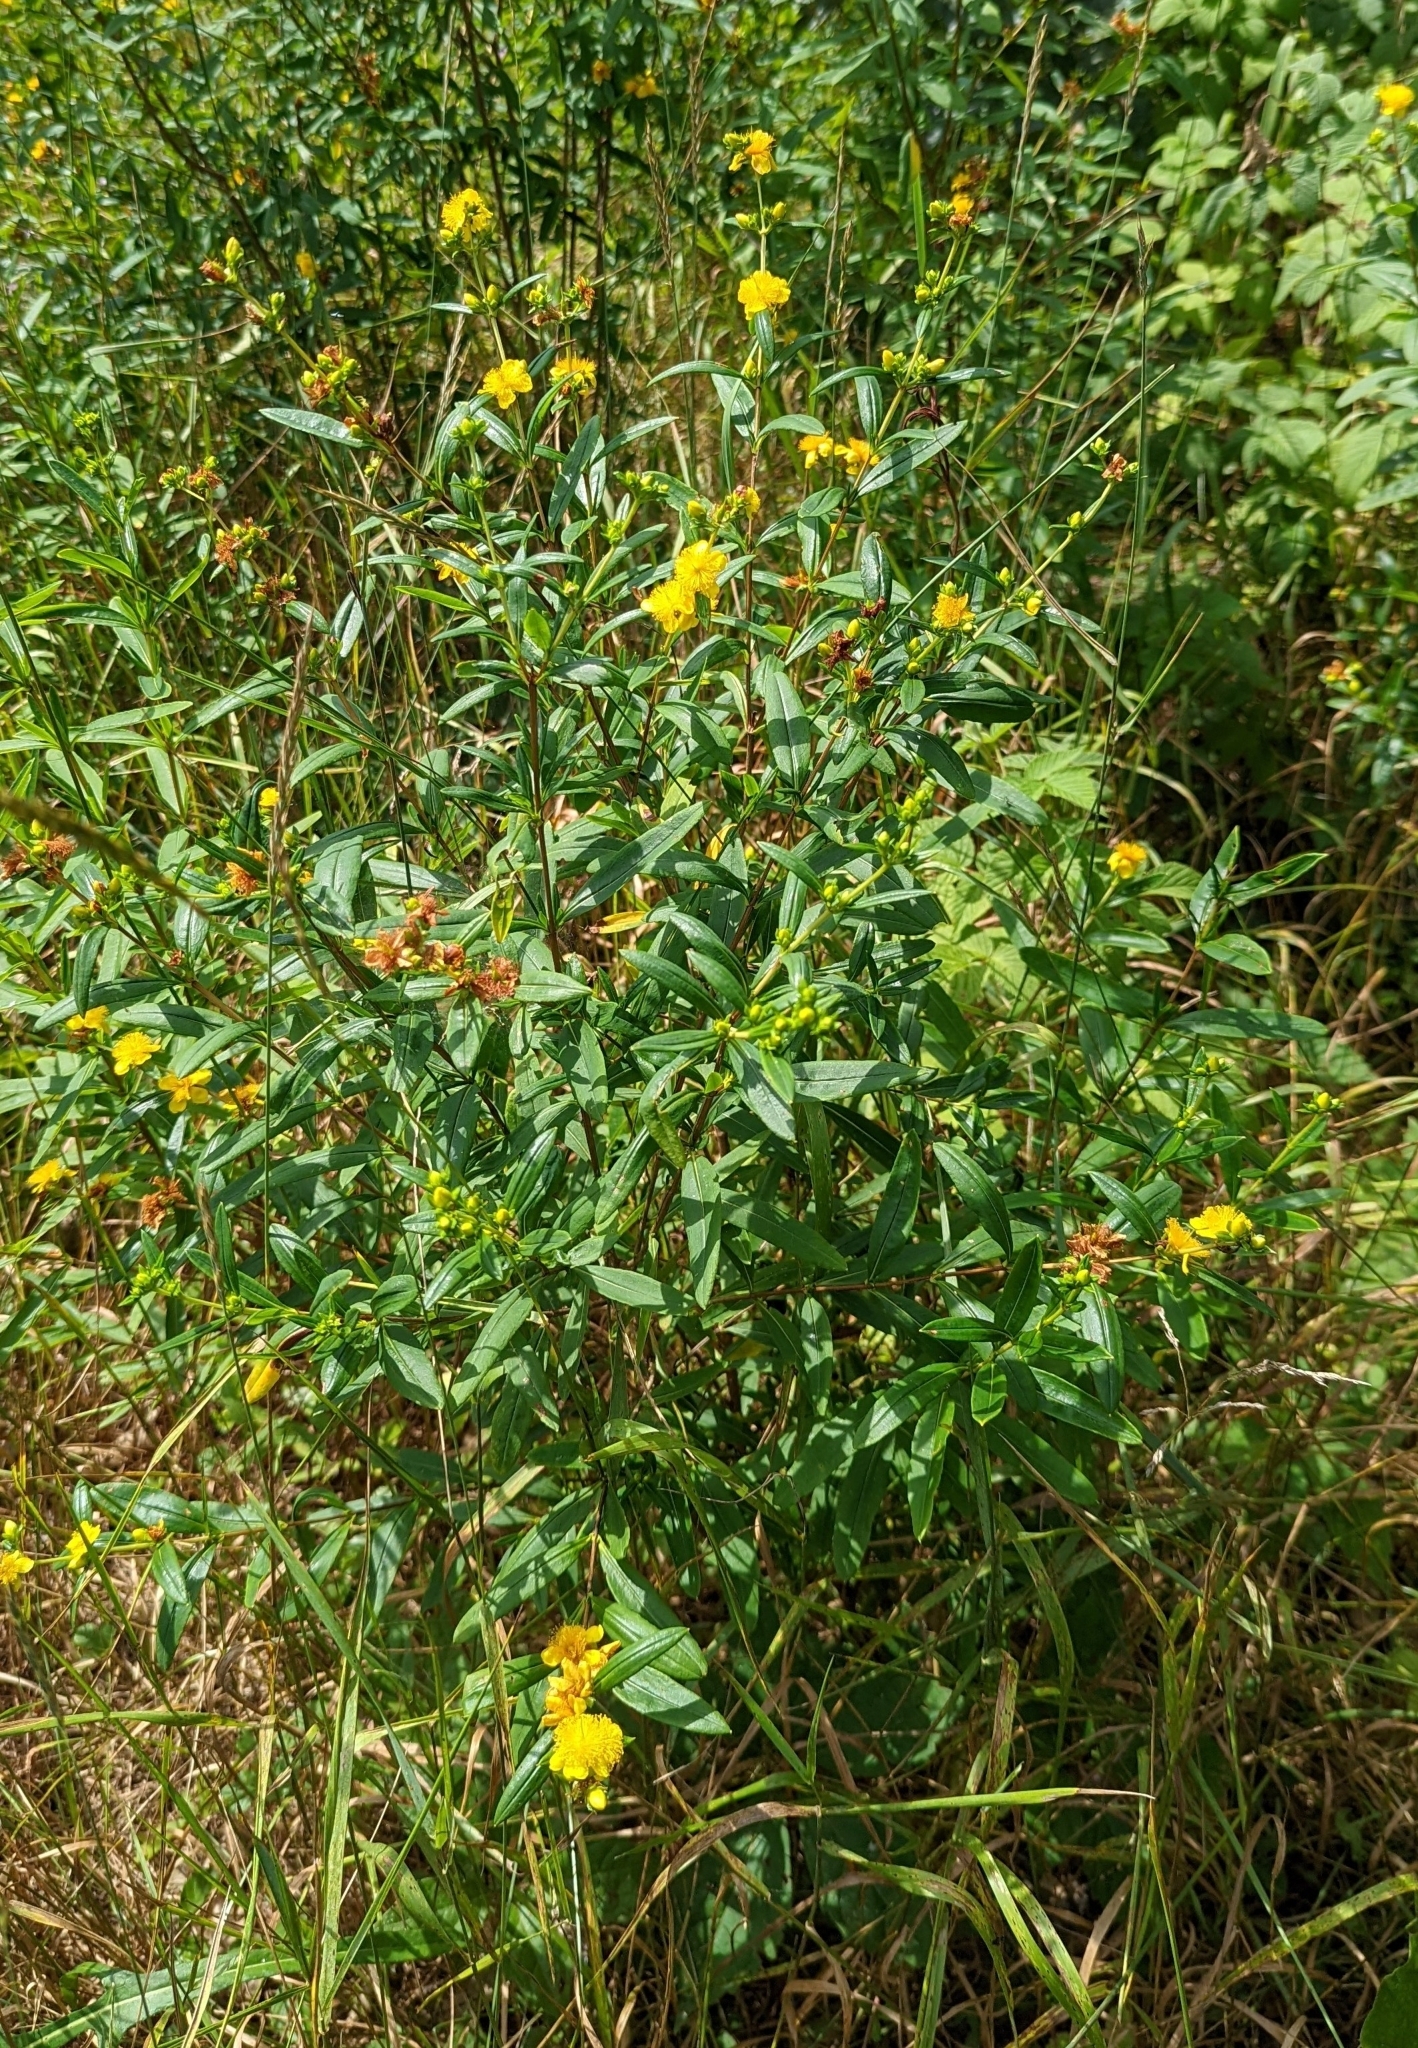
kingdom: Plantae
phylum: Tracheophyta
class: Magnoliopsida
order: Malpighiales
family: Hypericaceae
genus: Hypericum
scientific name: Hypericum prolificum
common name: Shrubby st. john's-wort
